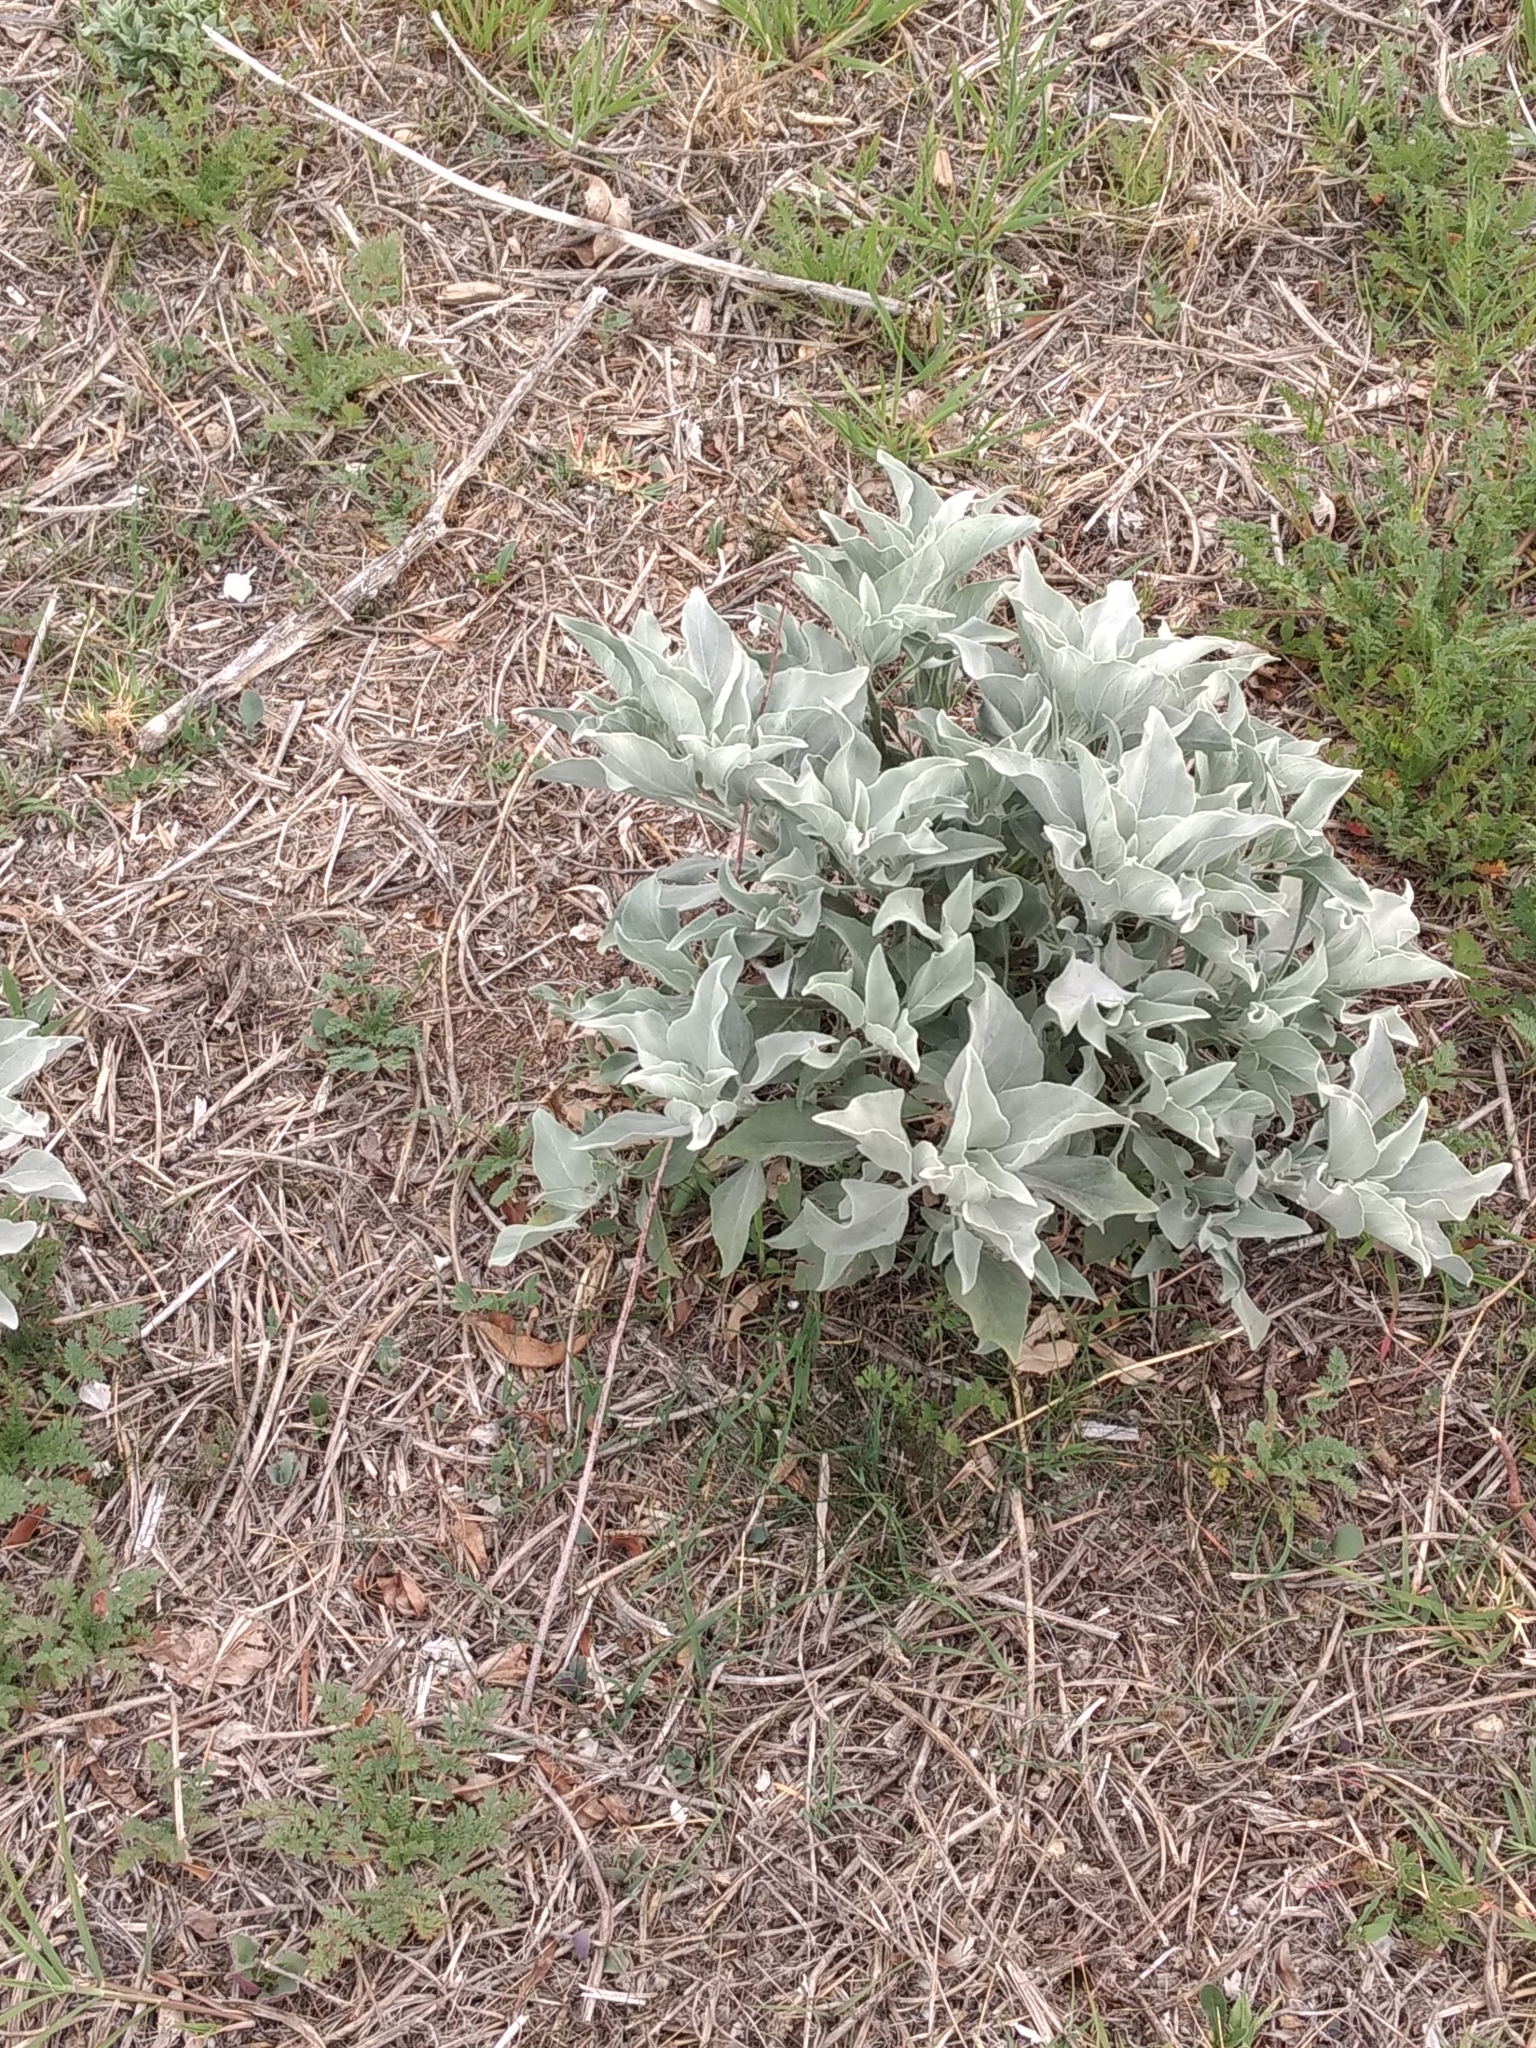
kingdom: Plantae
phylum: Tracheophyta
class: Magnoliopsida
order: Asterales
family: Asteraceae
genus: Encelia
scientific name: Encelia farinosa
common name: Brittlebush
